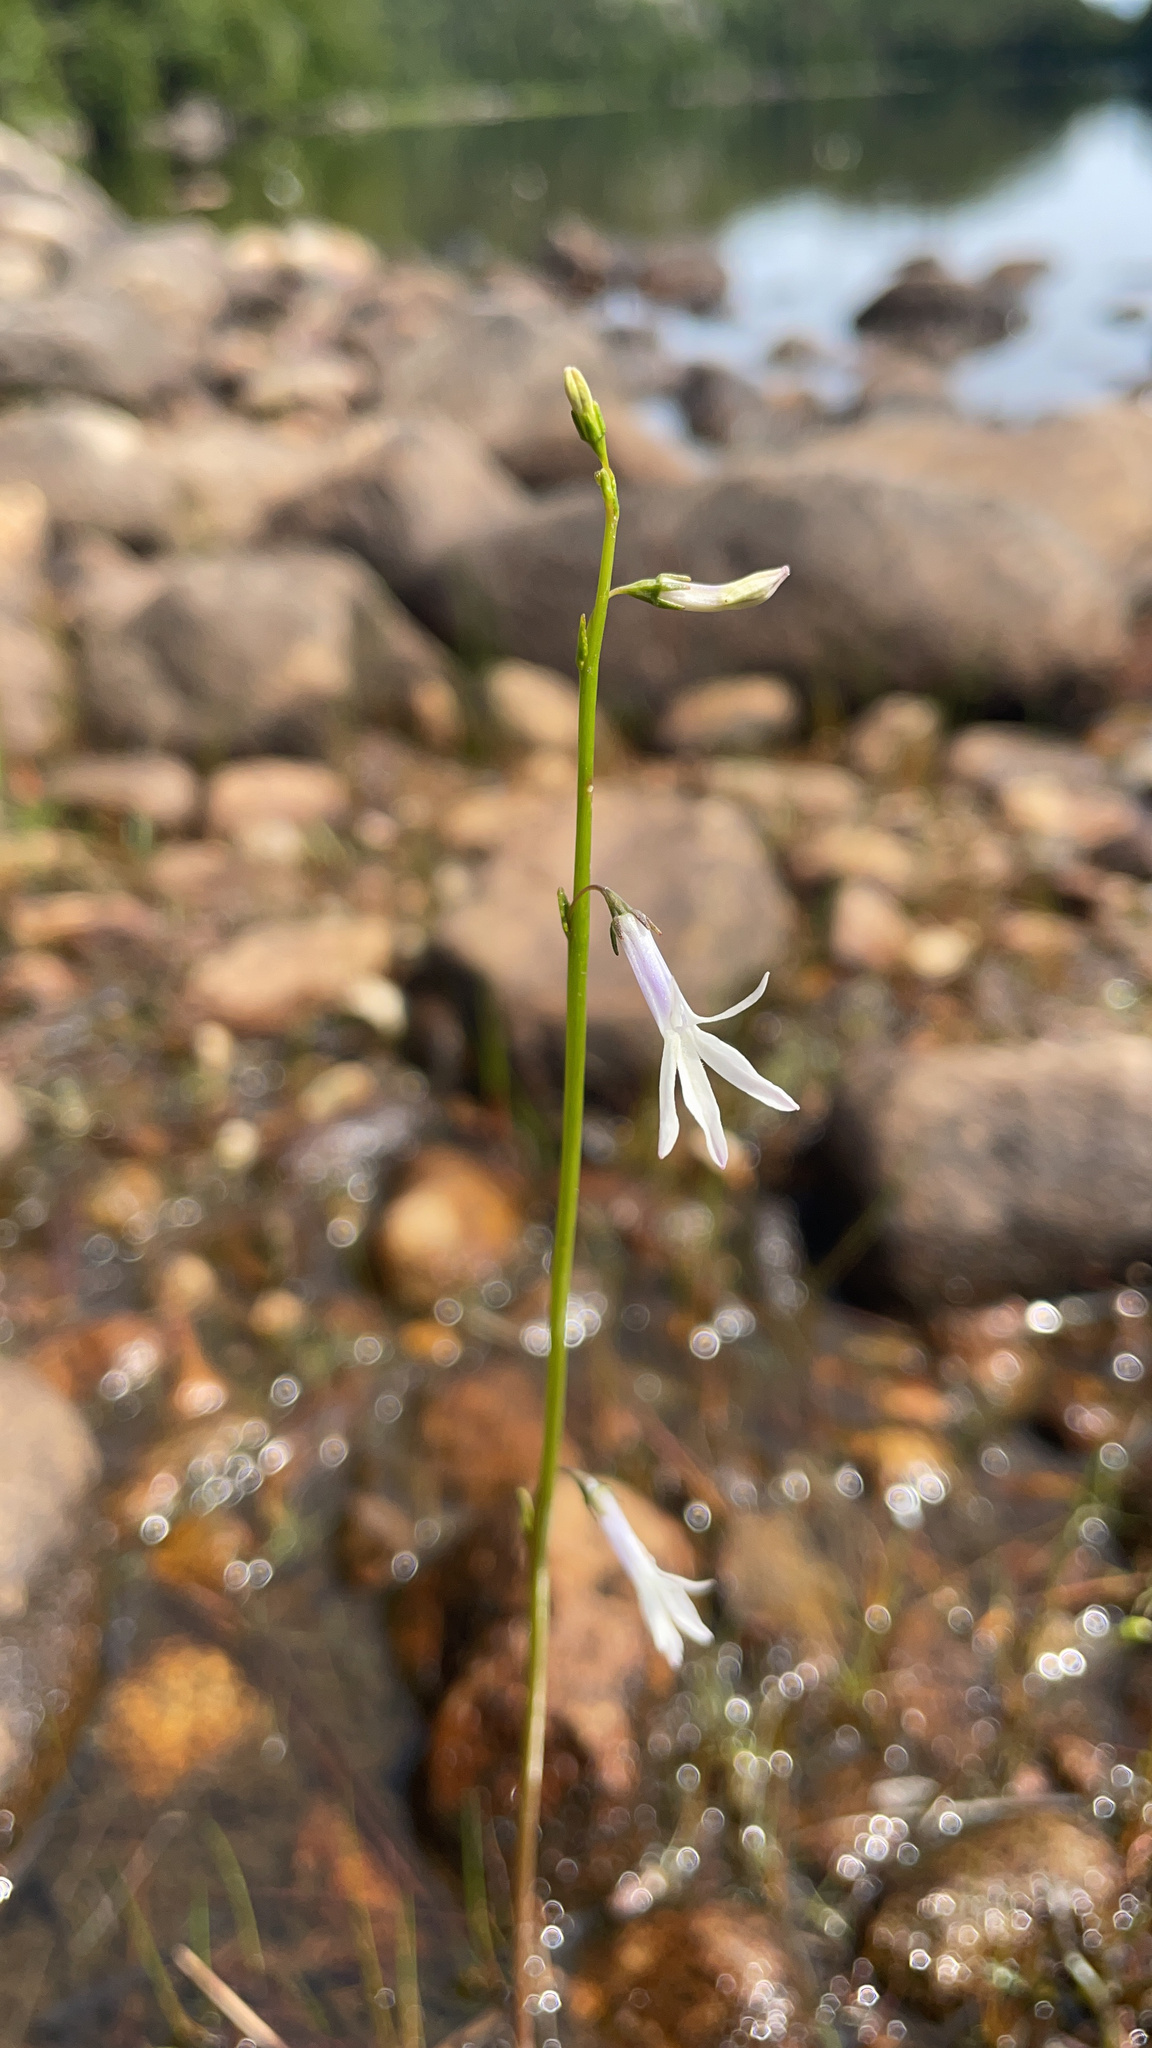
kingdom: Plantae
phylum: Tracheophyta
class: Magnoliopsida
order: Asterales
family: Campanulaceae
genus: Lobelia
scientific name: Lobelia dortmanna
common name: Water lobelia
